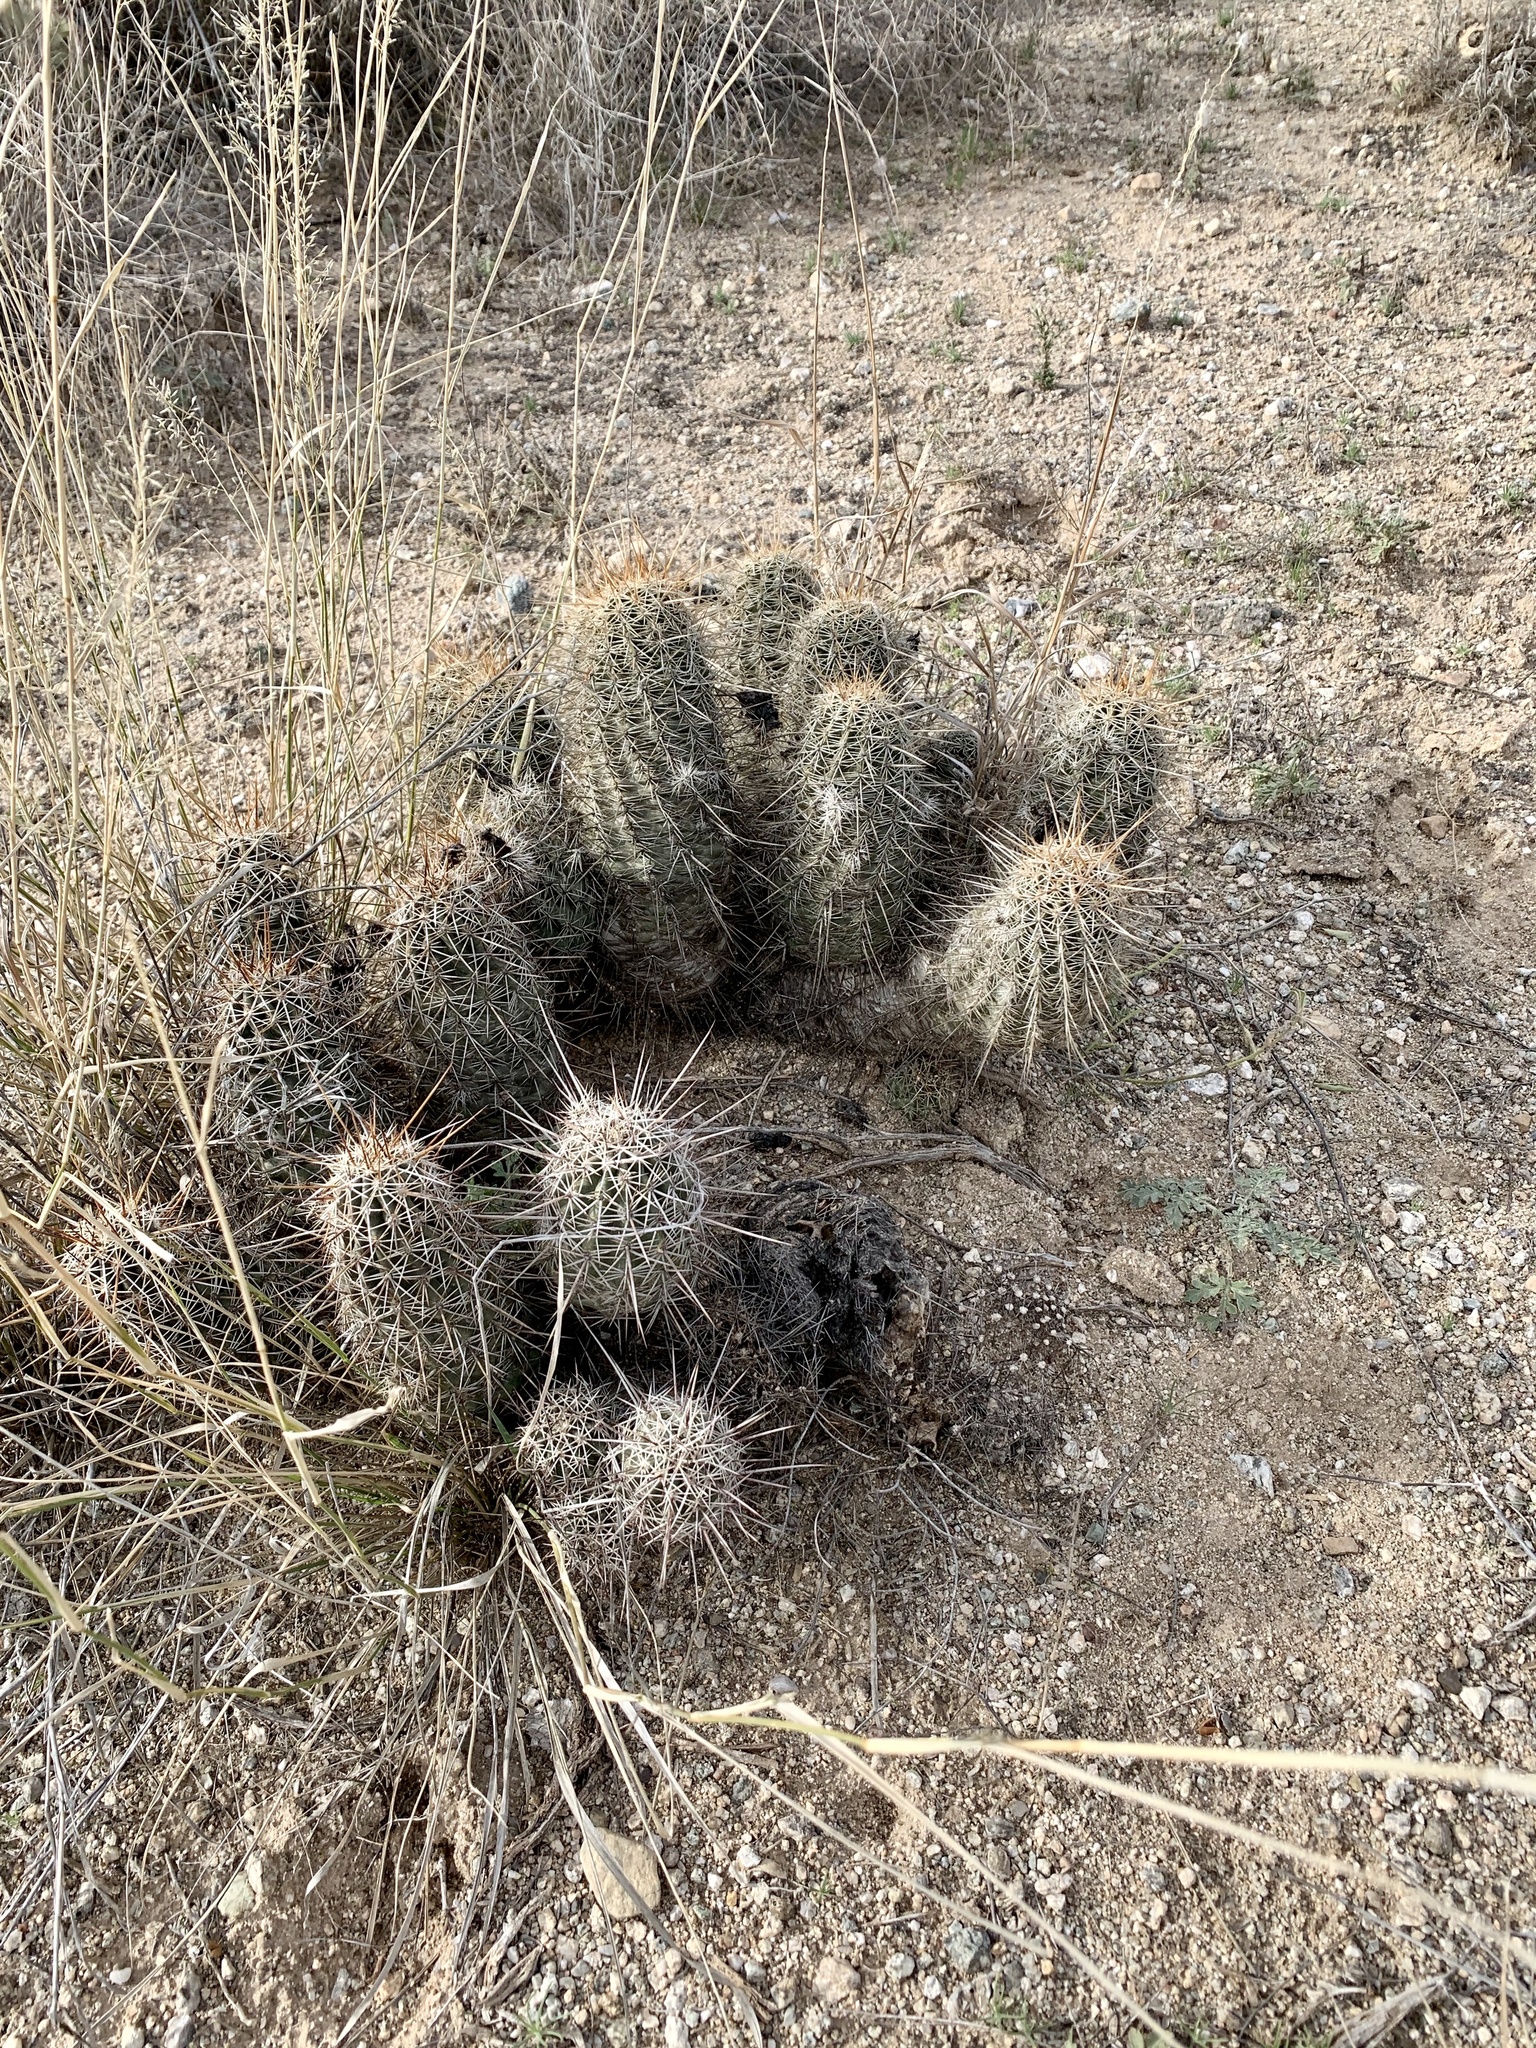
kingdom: Plantae
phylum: Tracheophyta
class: Magnoliopsida
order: Caryophyllales
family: Cactaceae
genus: Echinocereus
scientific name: Echinocereus fasciculatus
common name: Bundle hedgehog
